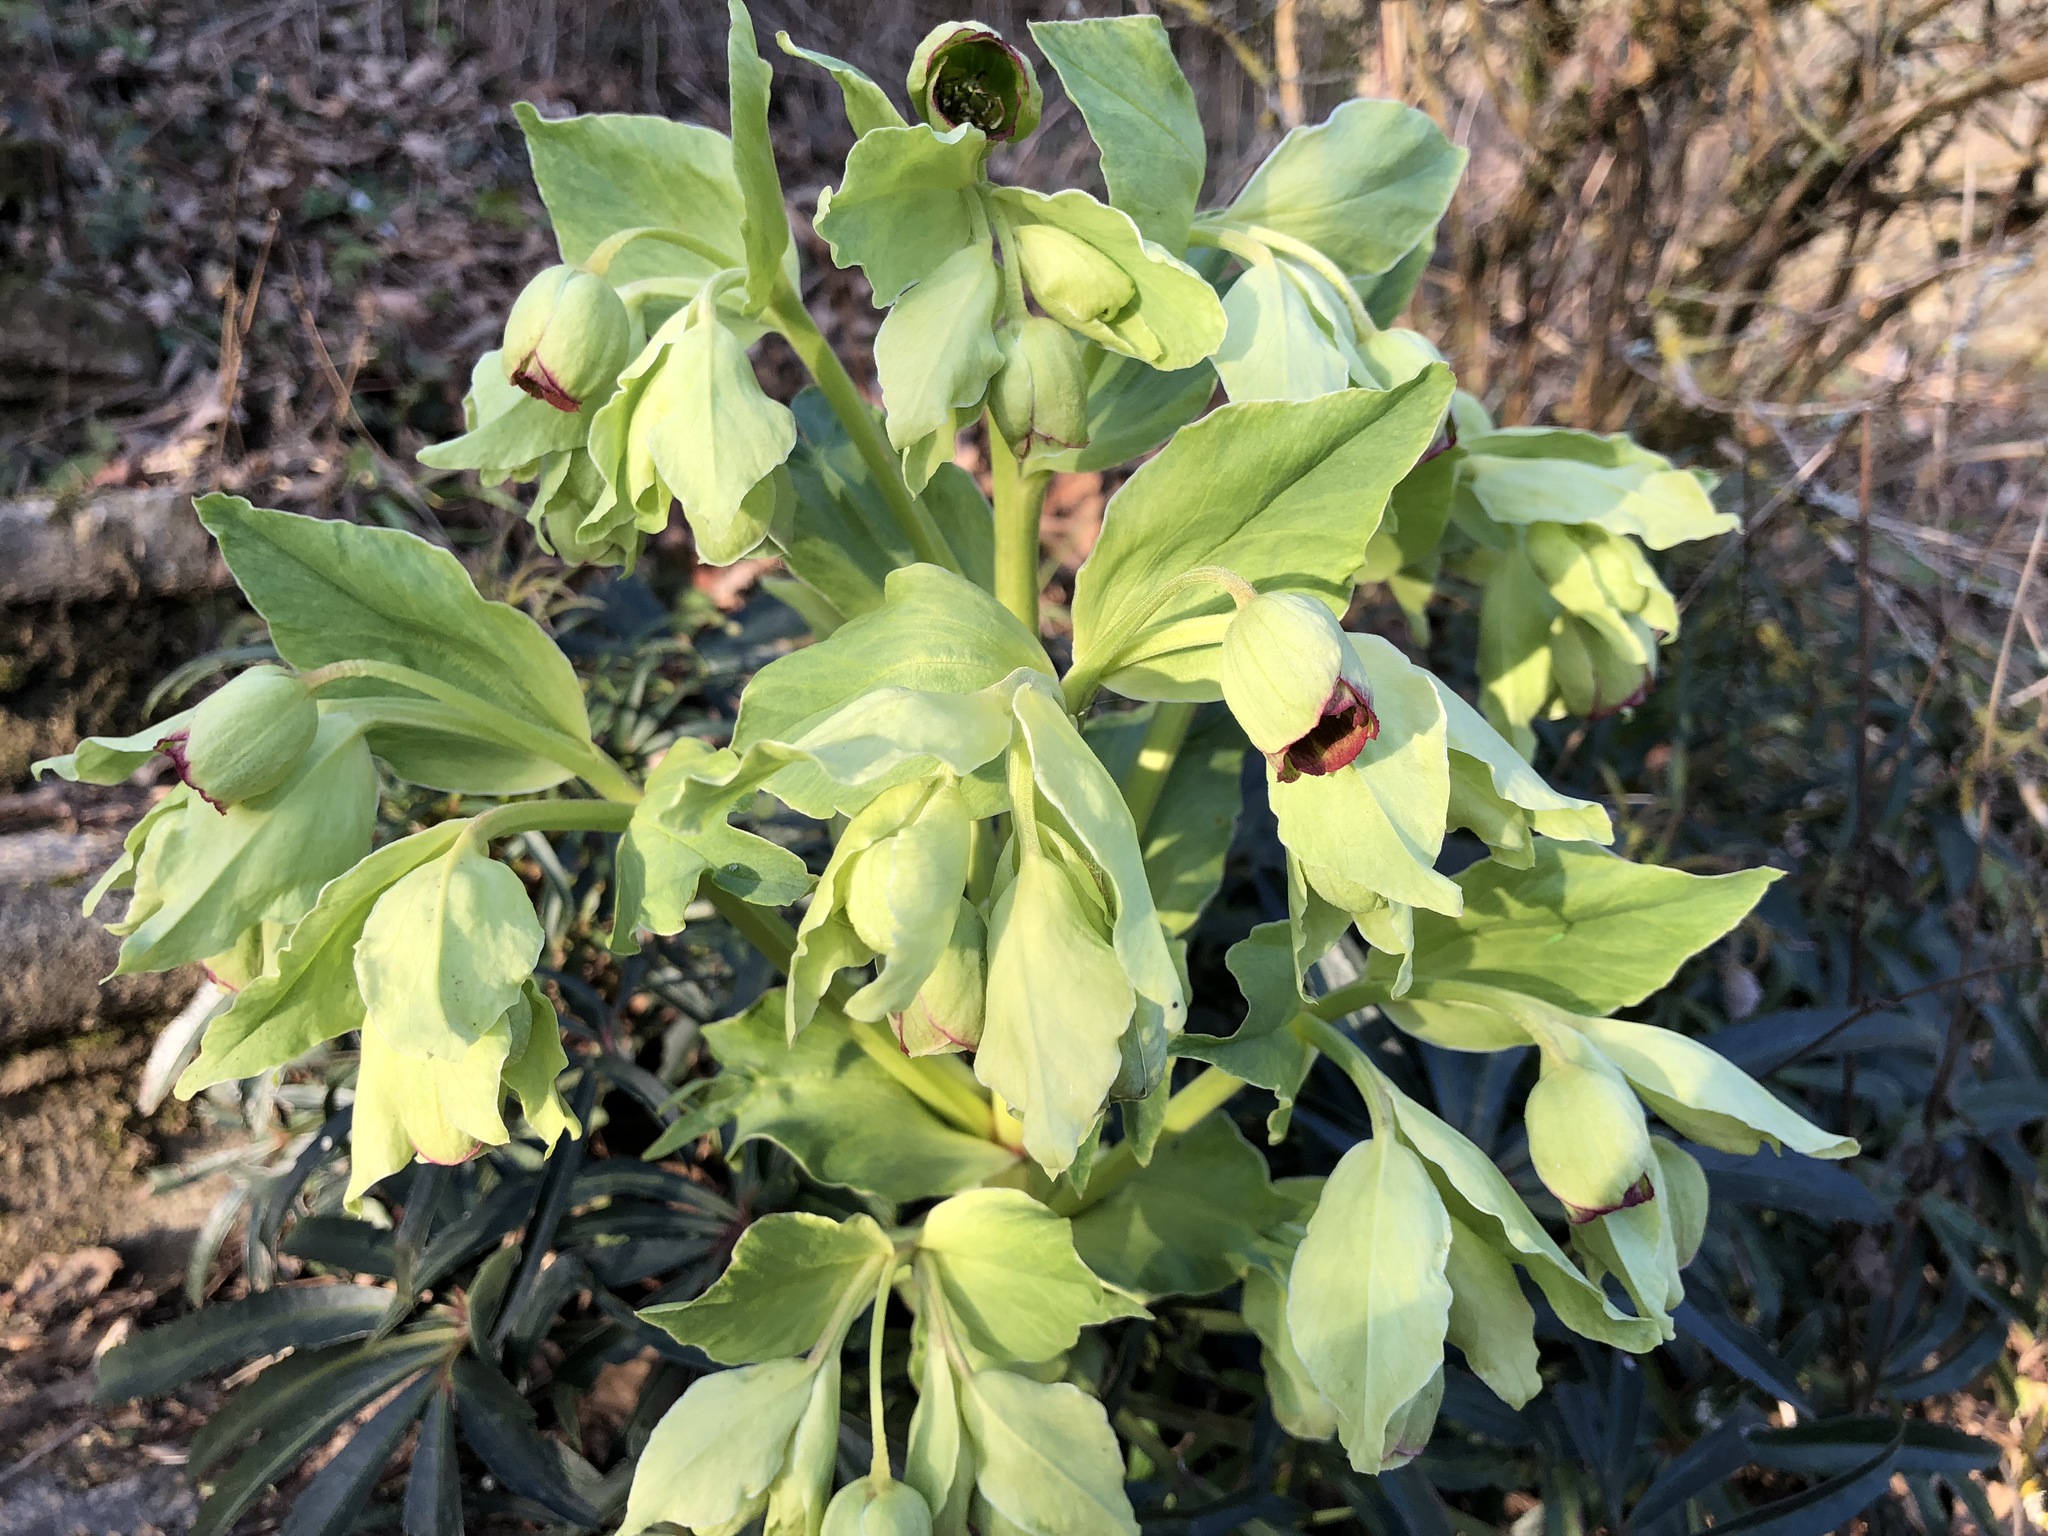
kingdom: Plantae
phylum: Tracheophyta
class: Magnoliopsida
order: Ranunculales
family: Ranunculaceae
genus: Helleborus
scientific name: Helleborus foetidus
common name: Stinking hellebore
